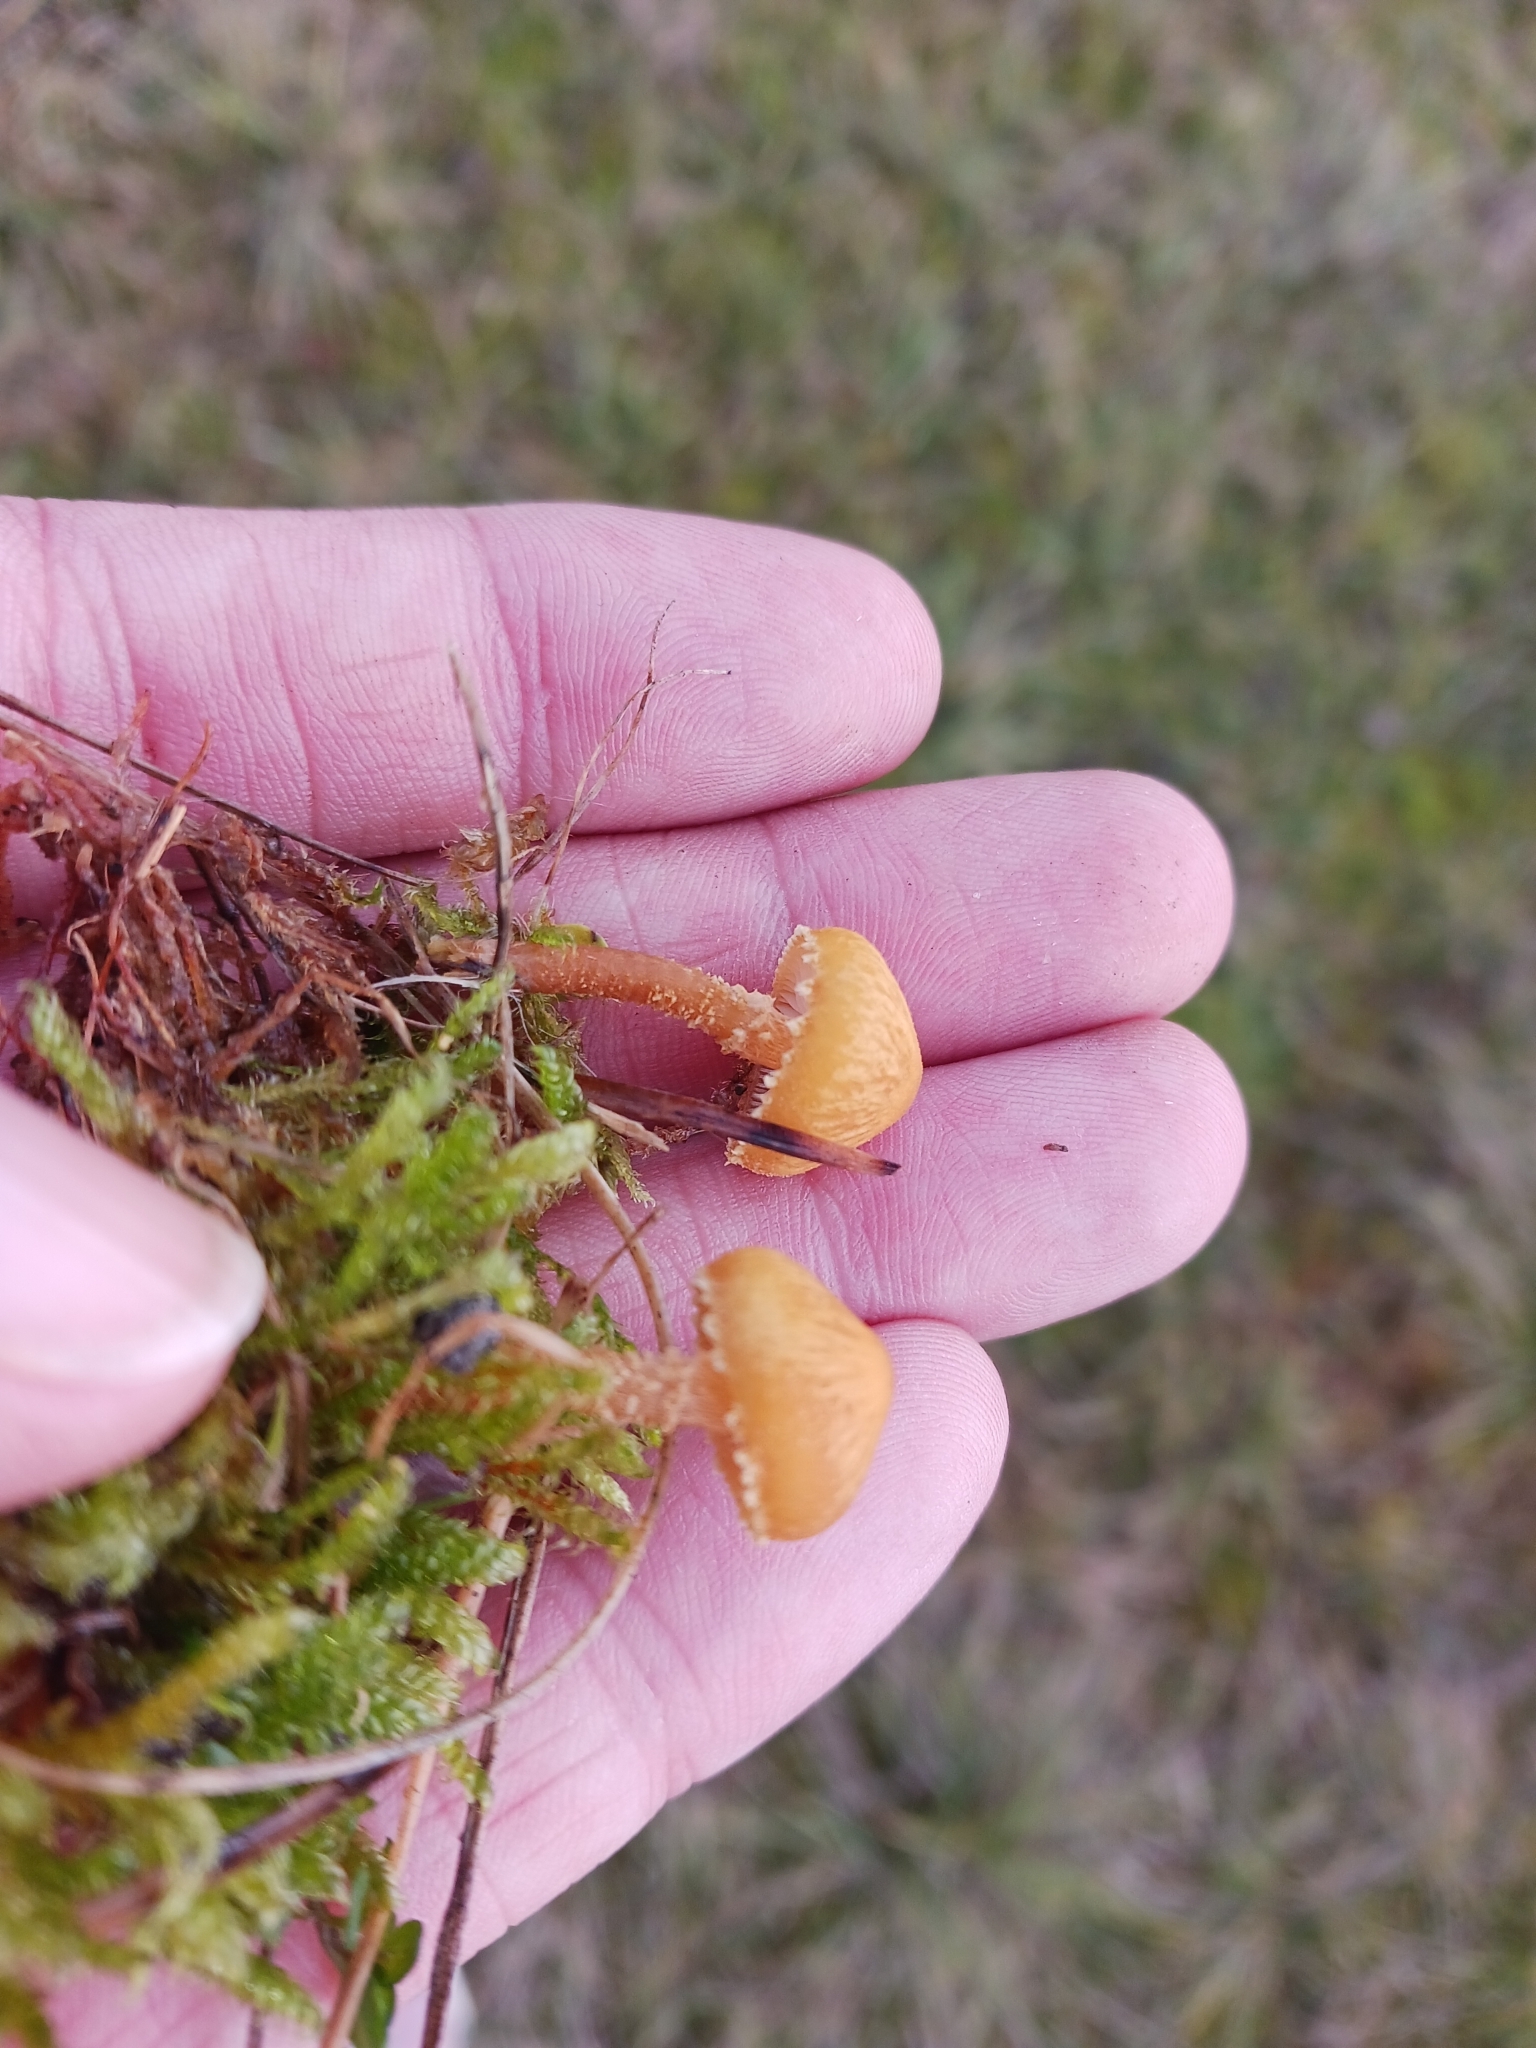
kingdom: Fungi
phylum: Basidiomycota
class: Agaricomycetes
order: Agaricales
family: Tricholomataceae
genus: Cystoderma
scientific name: Cystoderma amianthinum
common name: Earthy powdercap
